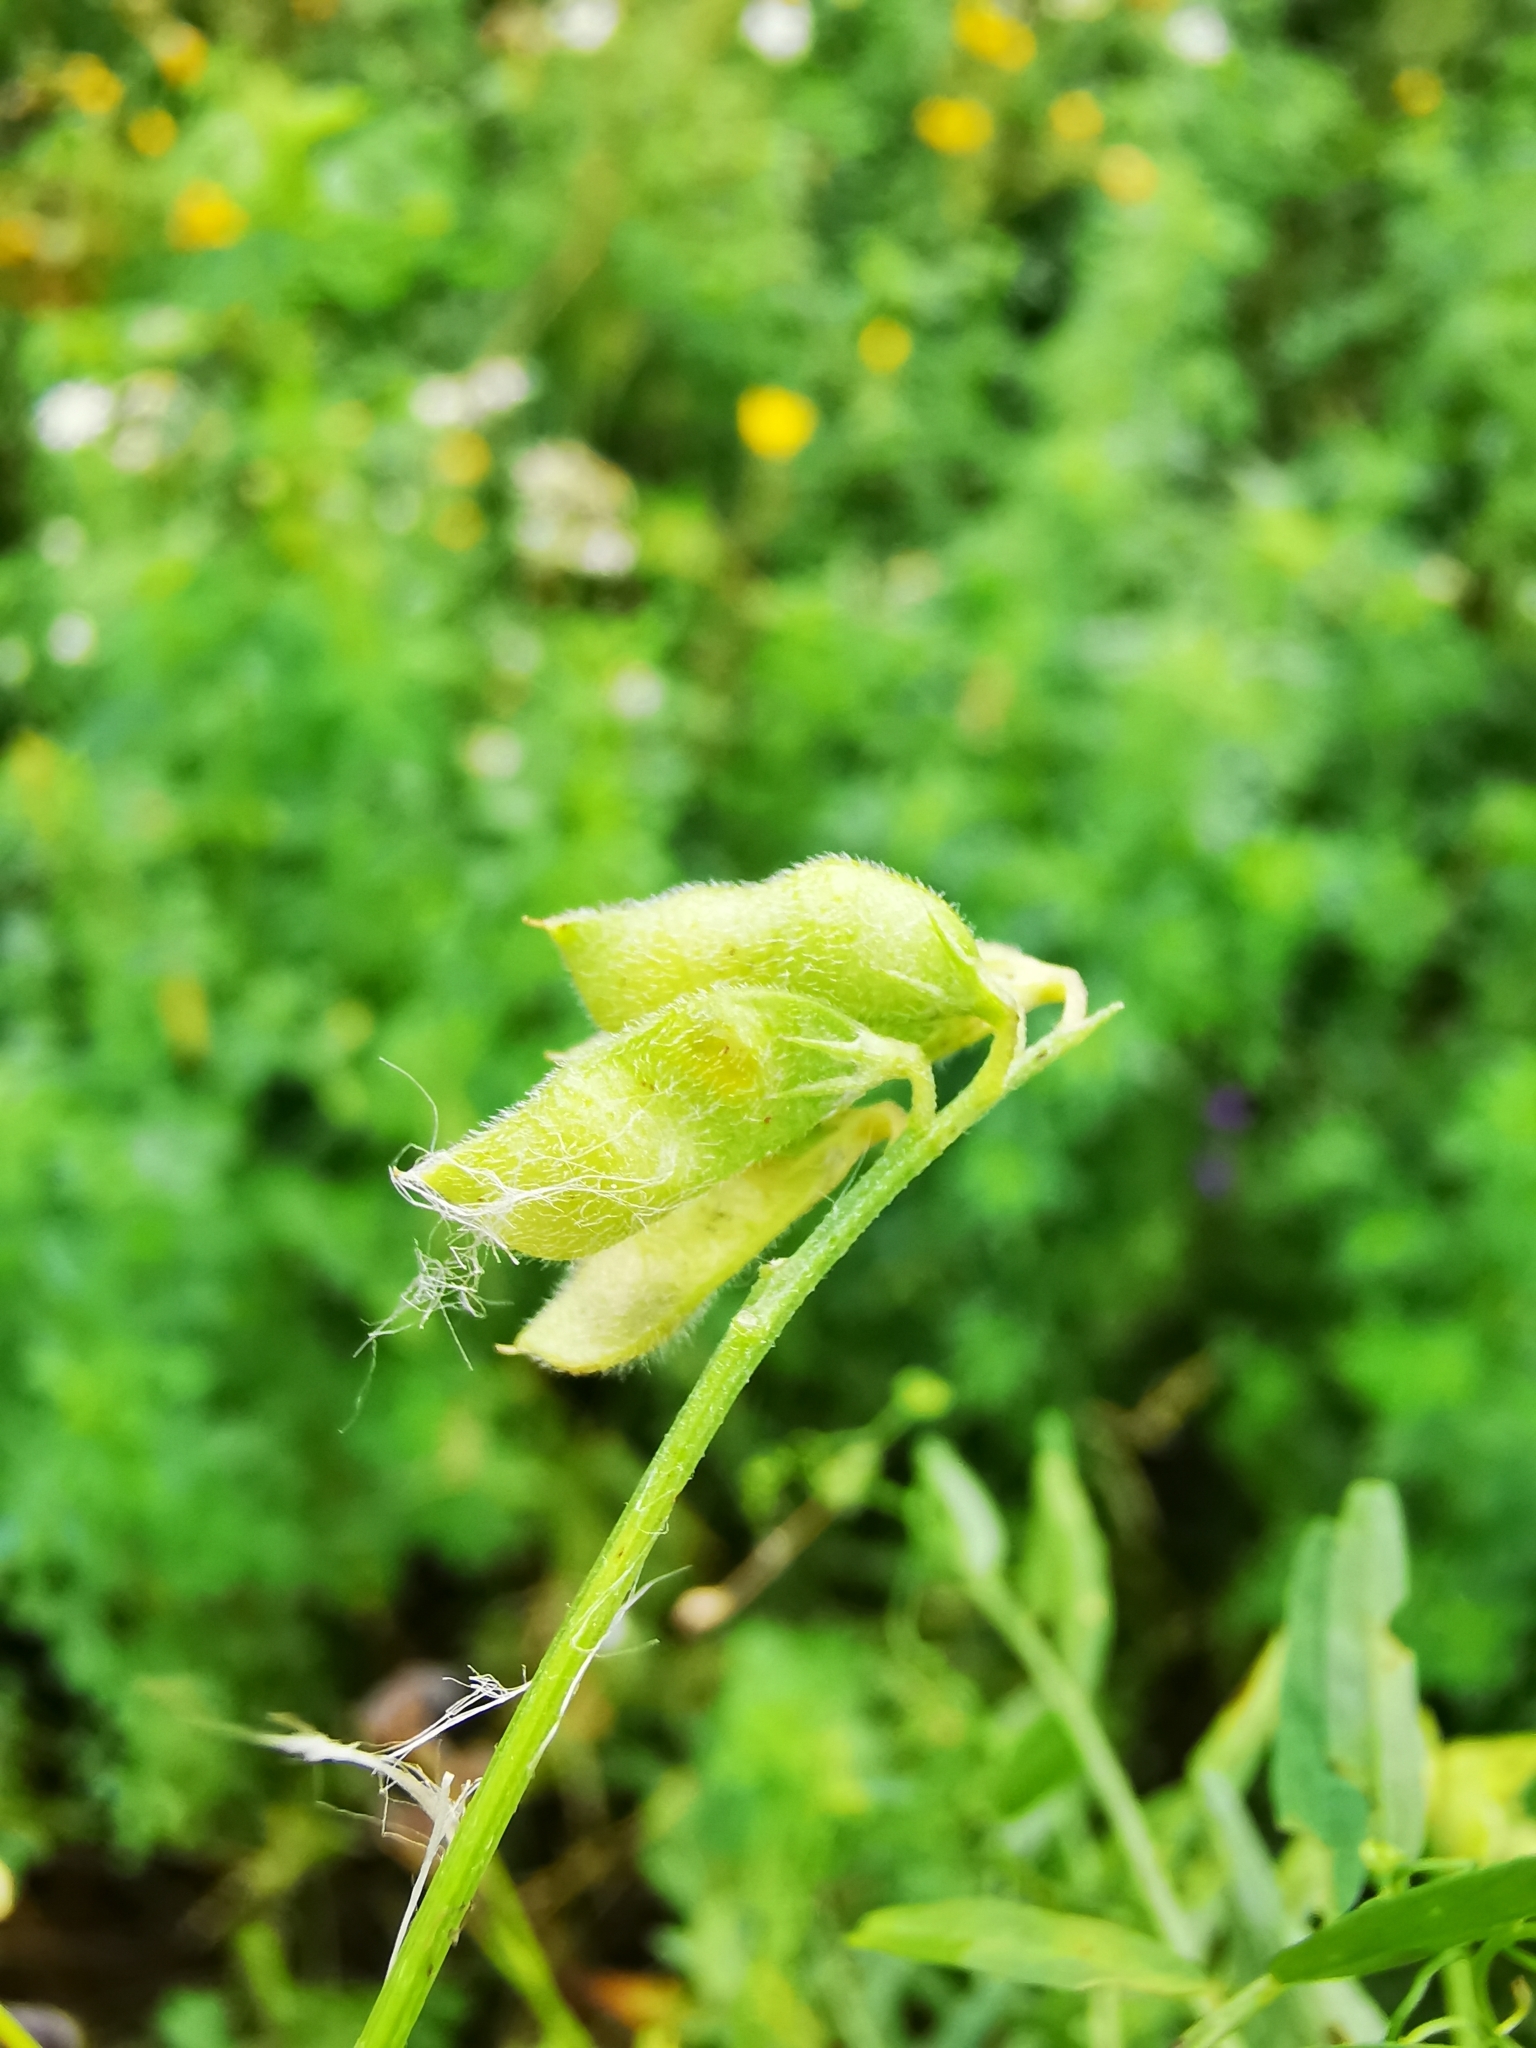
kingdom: Plantae
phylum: Tracheophyta
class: Magnoliopsida
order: Fabales
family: Fabaceae
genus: Vicia
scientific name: Vicia hirsuta
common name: Tiny vetch
